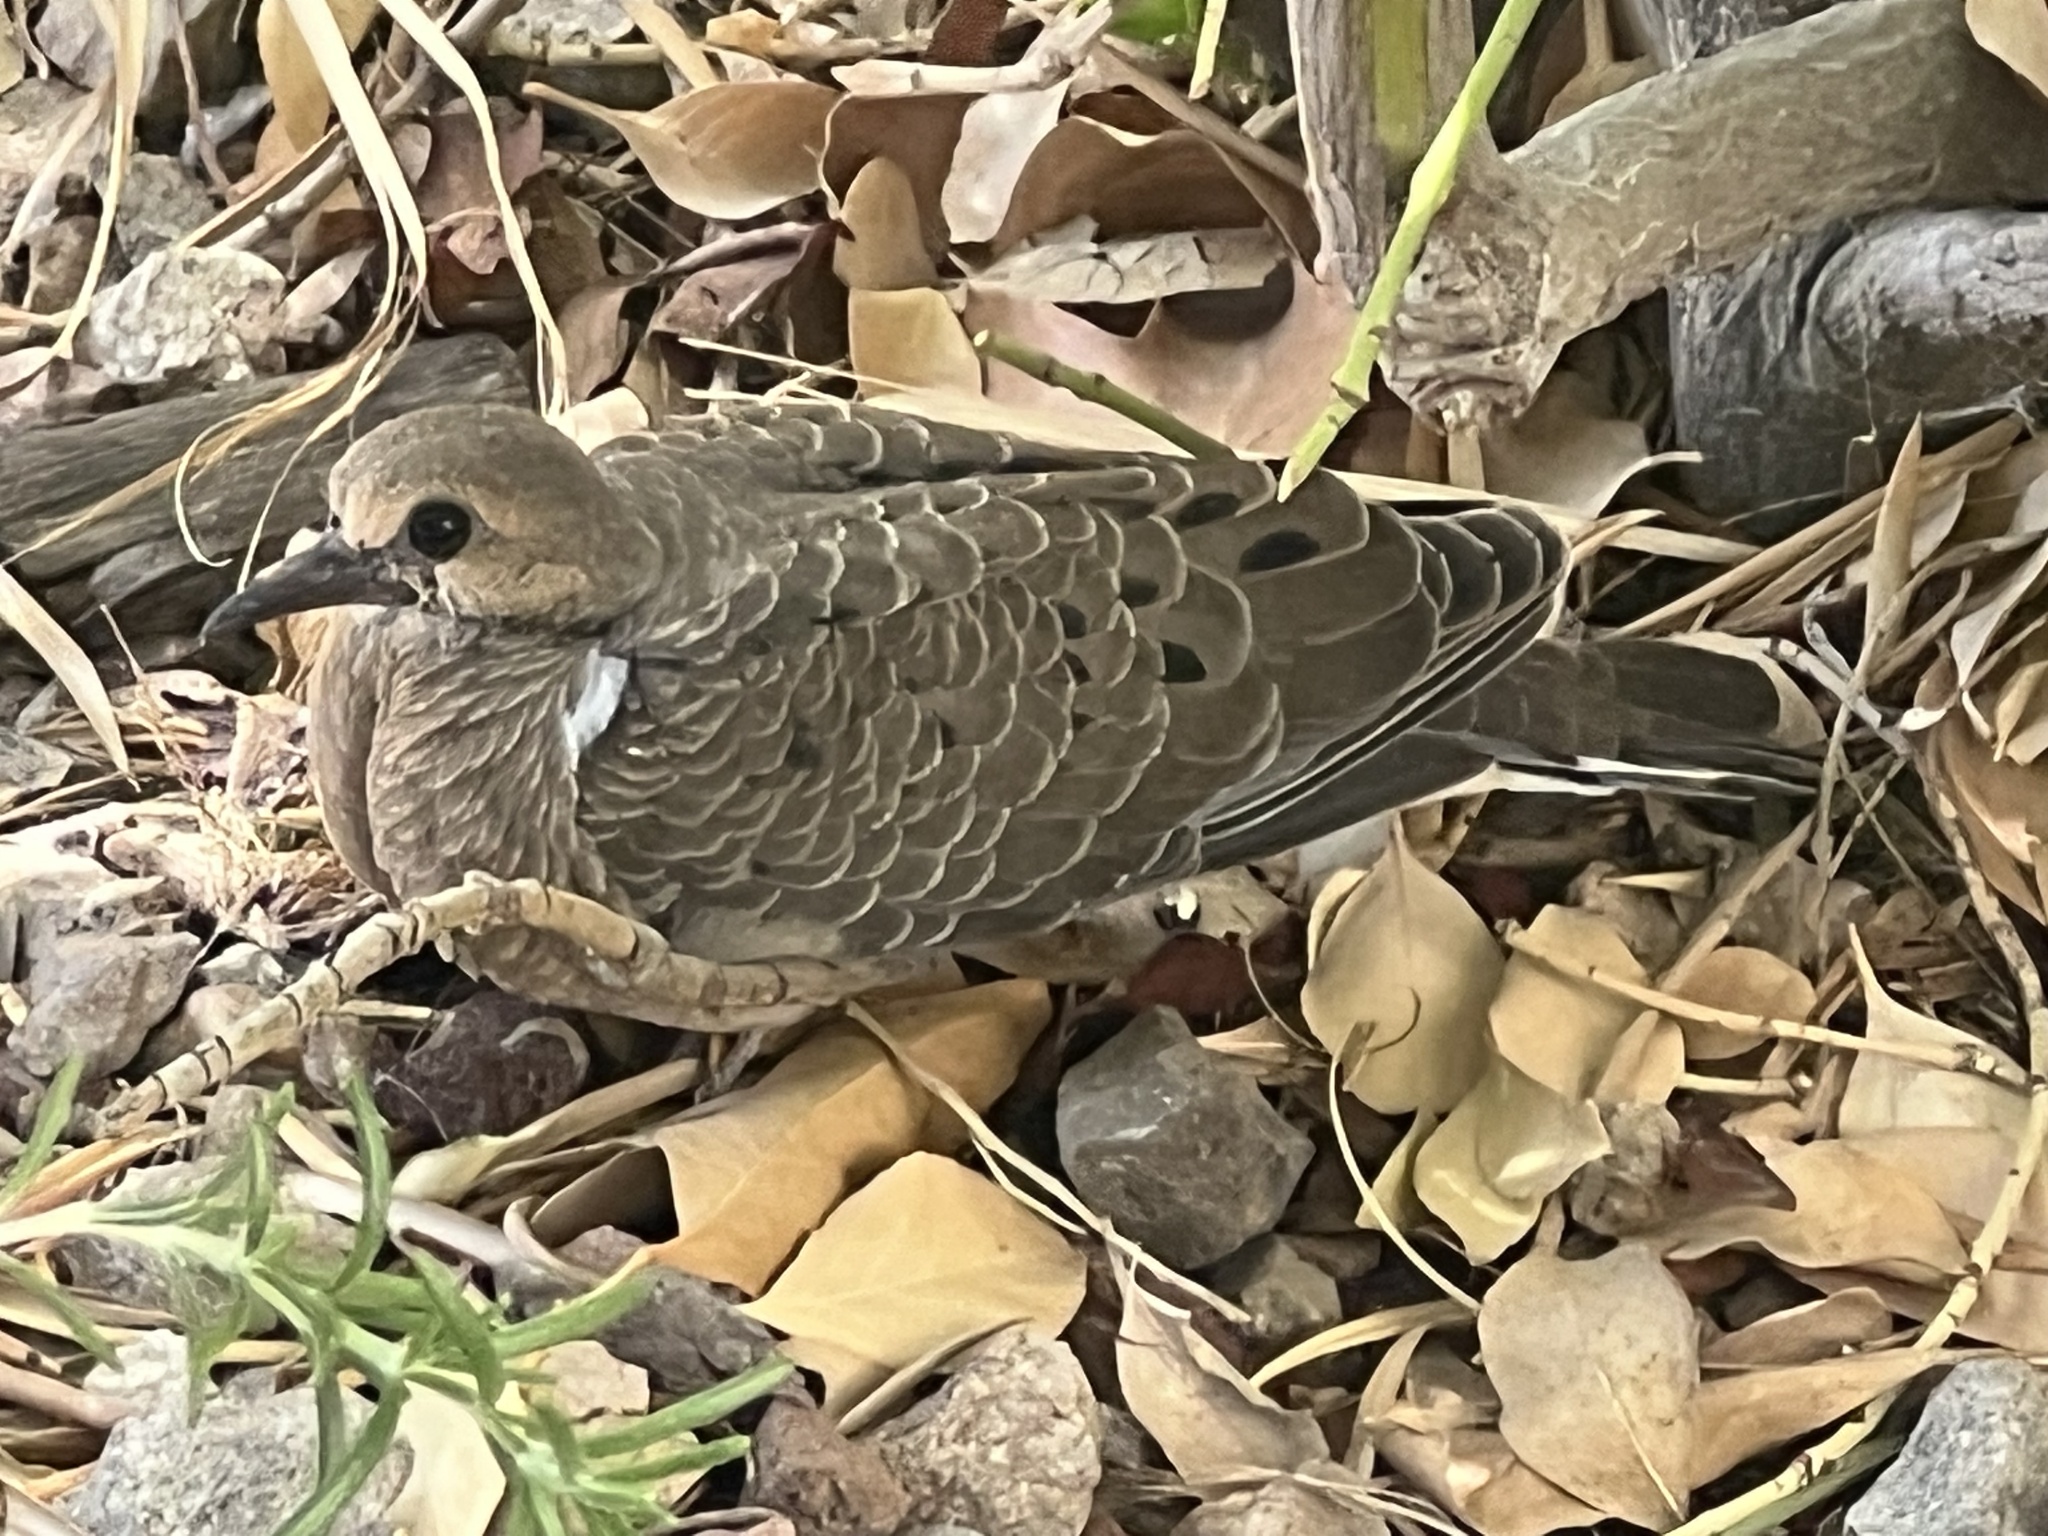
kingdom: Animalia
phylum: Chordata
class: Aves
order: Columbiformes
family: Columbidae
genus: Zenaida
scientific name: Zenaida macroura
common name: Mourning dove
